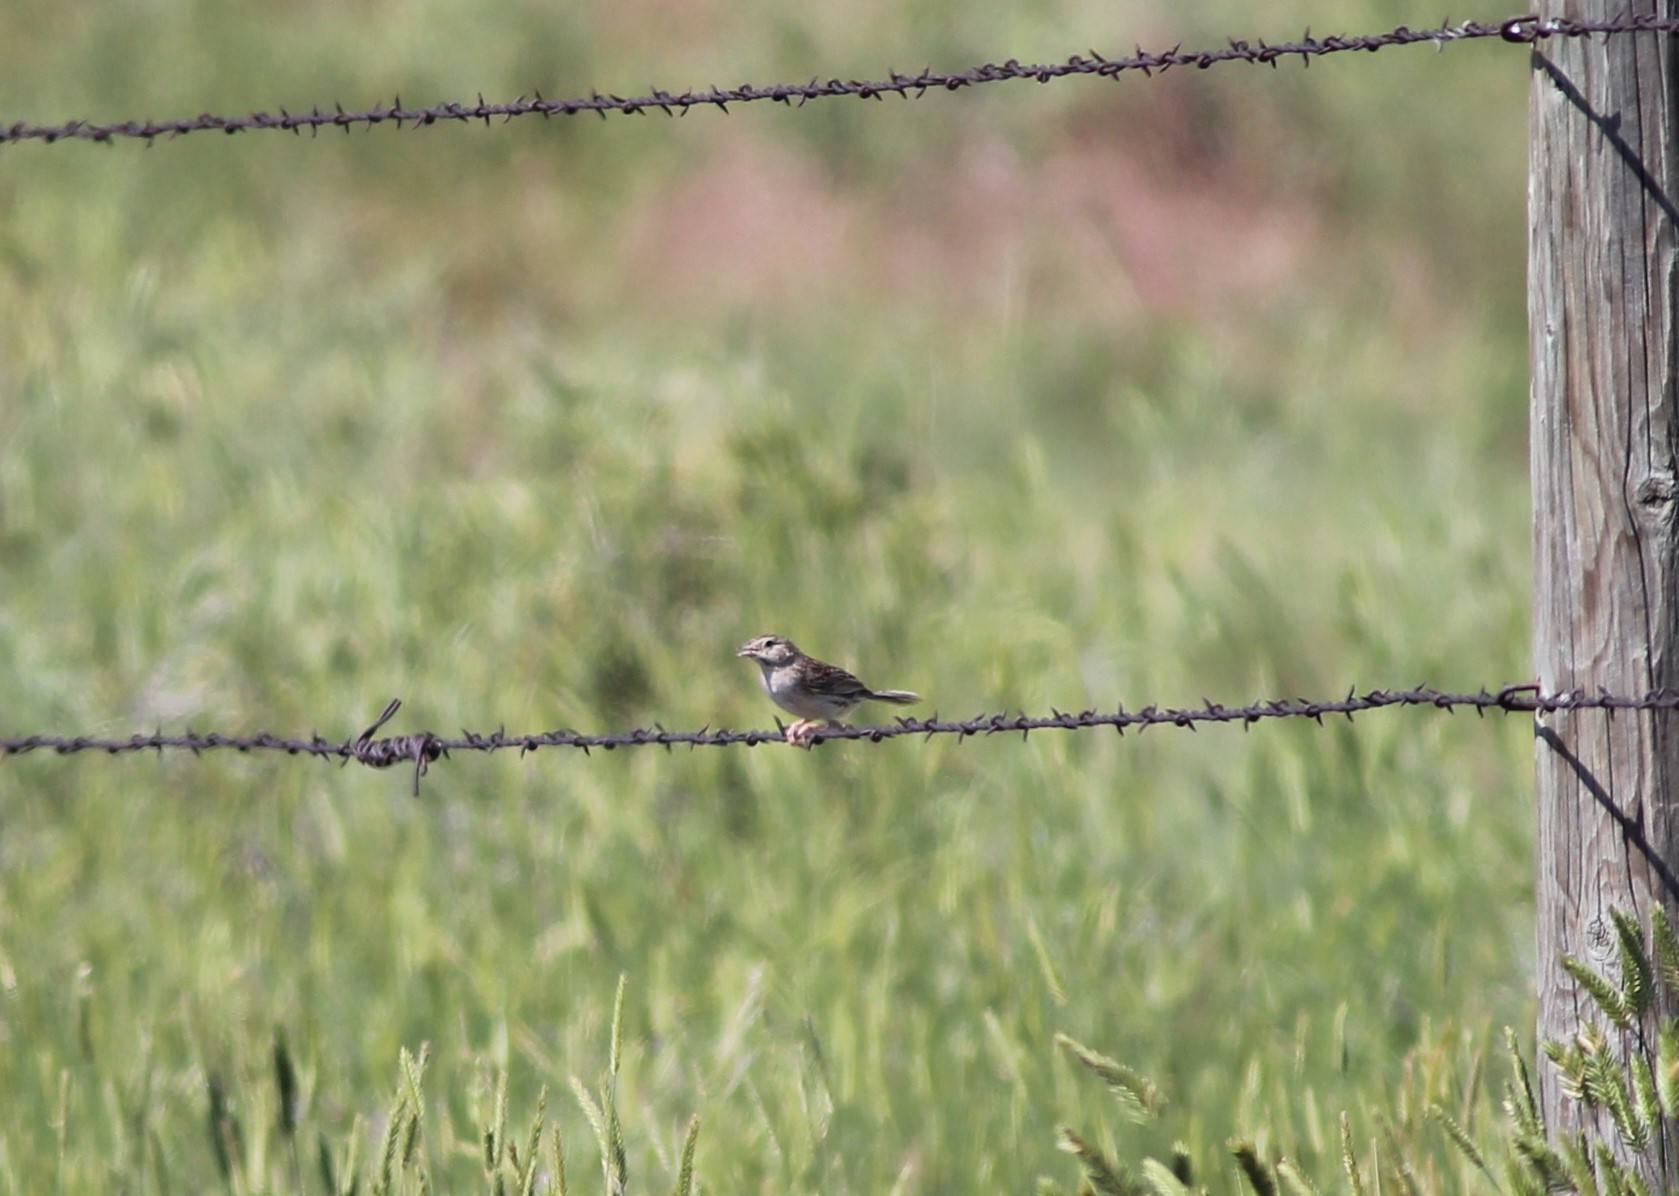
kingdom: Animalia
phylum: Chordata
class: Aves
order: Passeriformes
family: Passerellidae
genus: Peucaea
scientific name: Peucaea cassinii
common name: Cassin's sparrow
